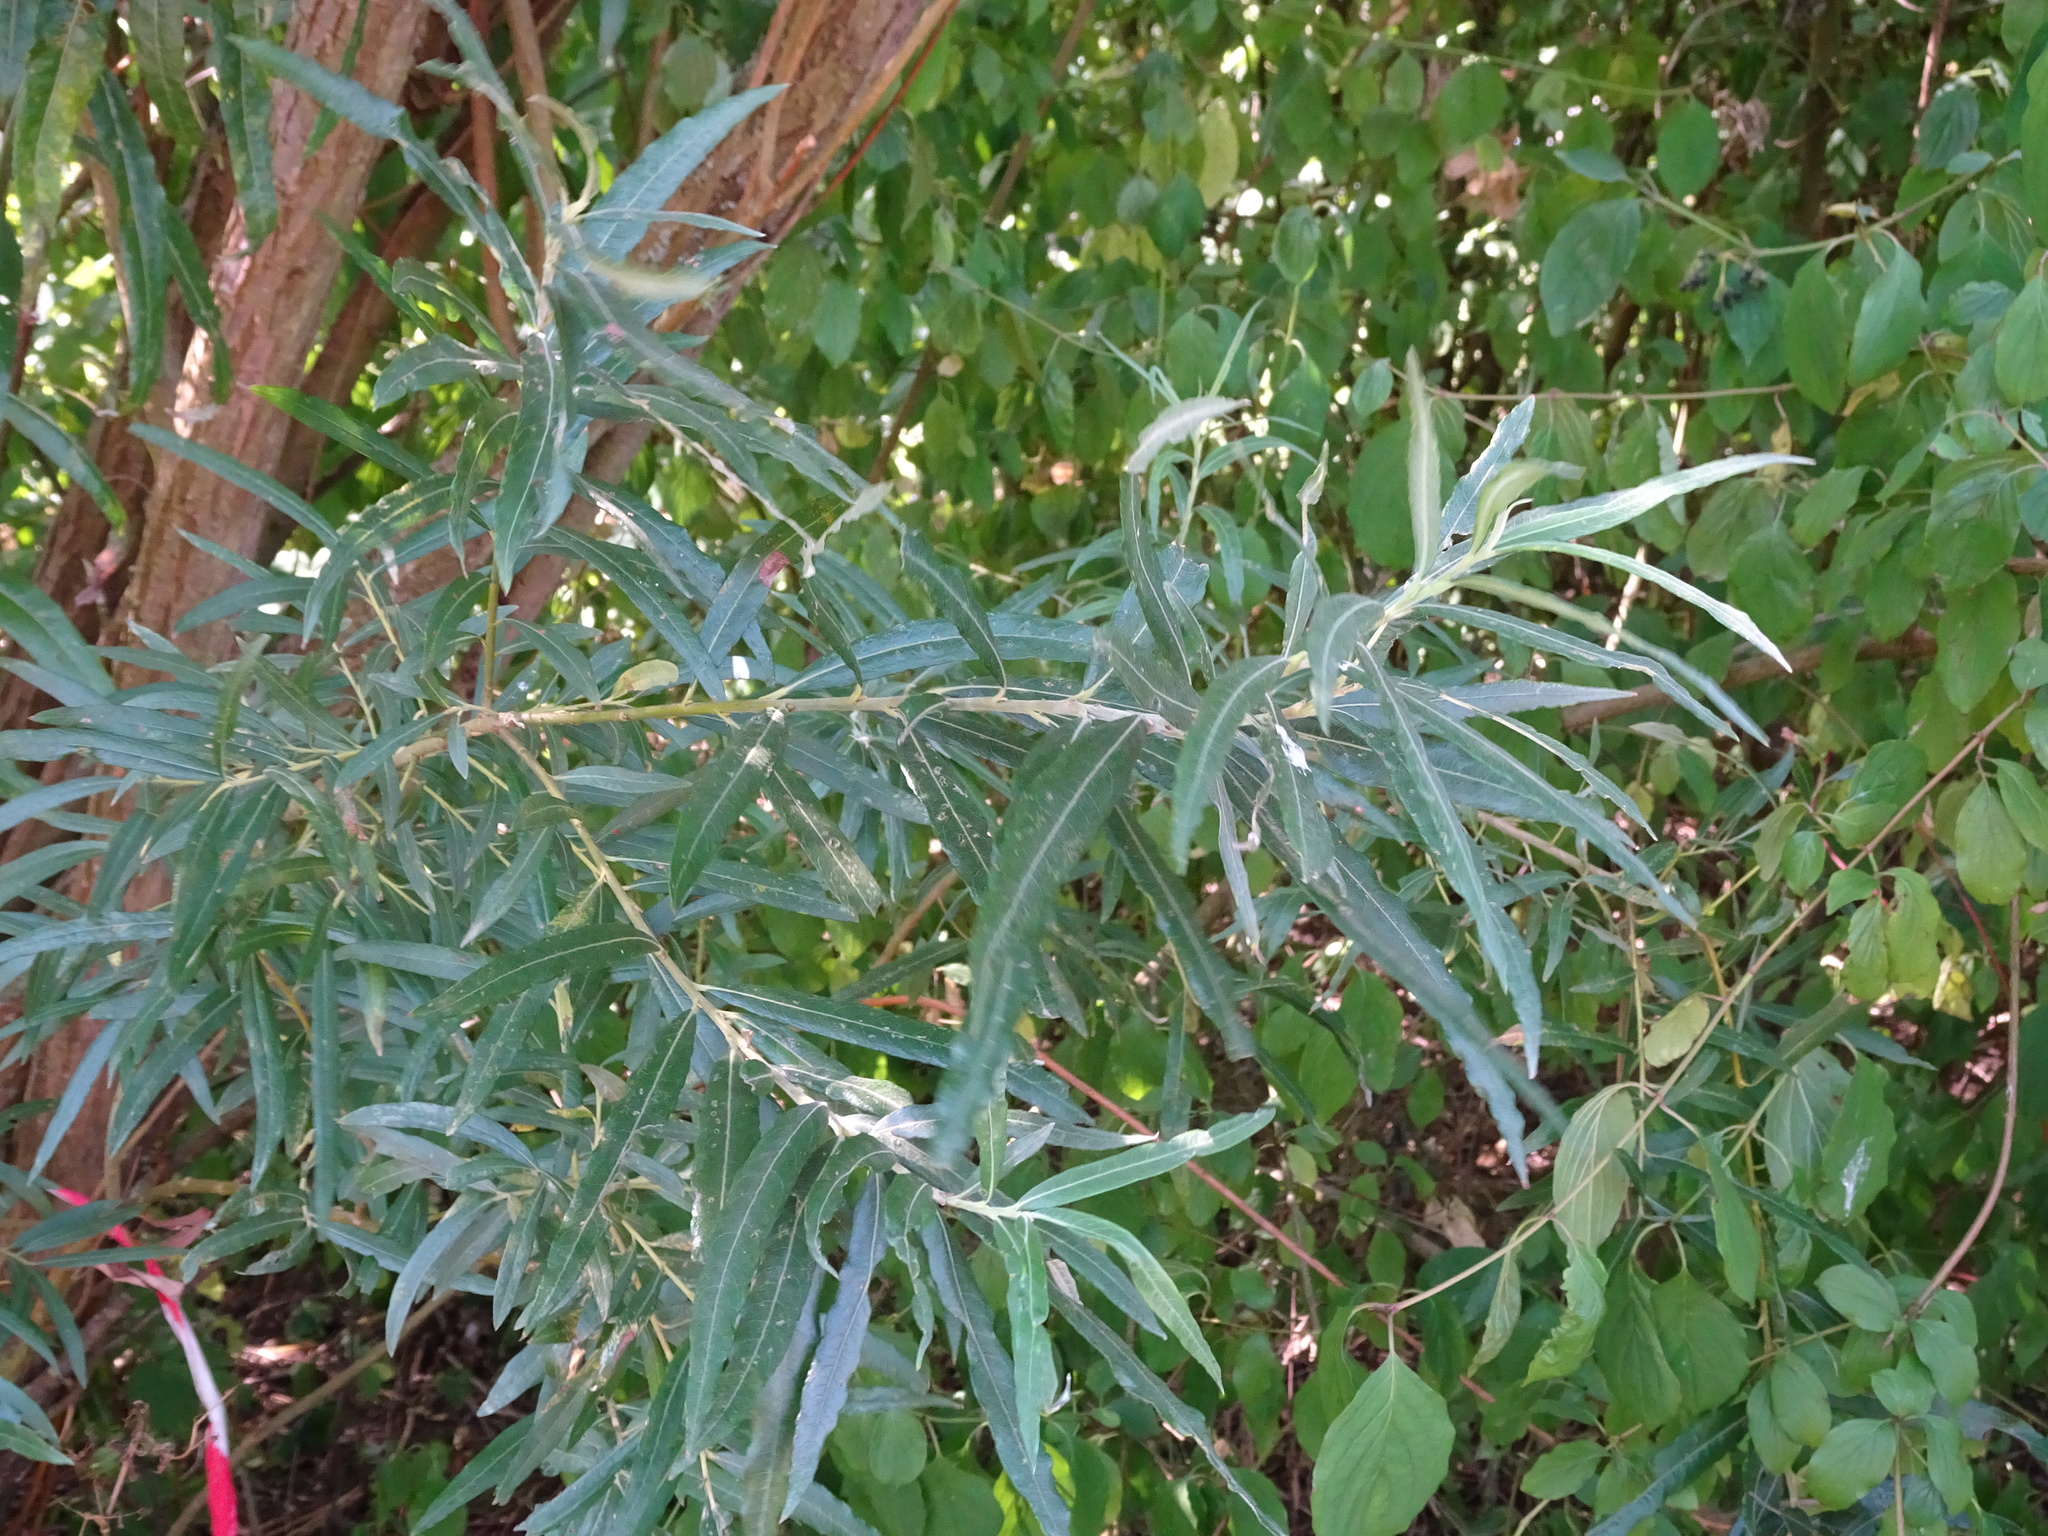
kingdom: Plantae
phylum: Tracheophyta
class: Magnoliopsida
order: Malpighiales
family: Salicaceae
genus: Salix
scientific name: Salix viminalis
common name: Osier
